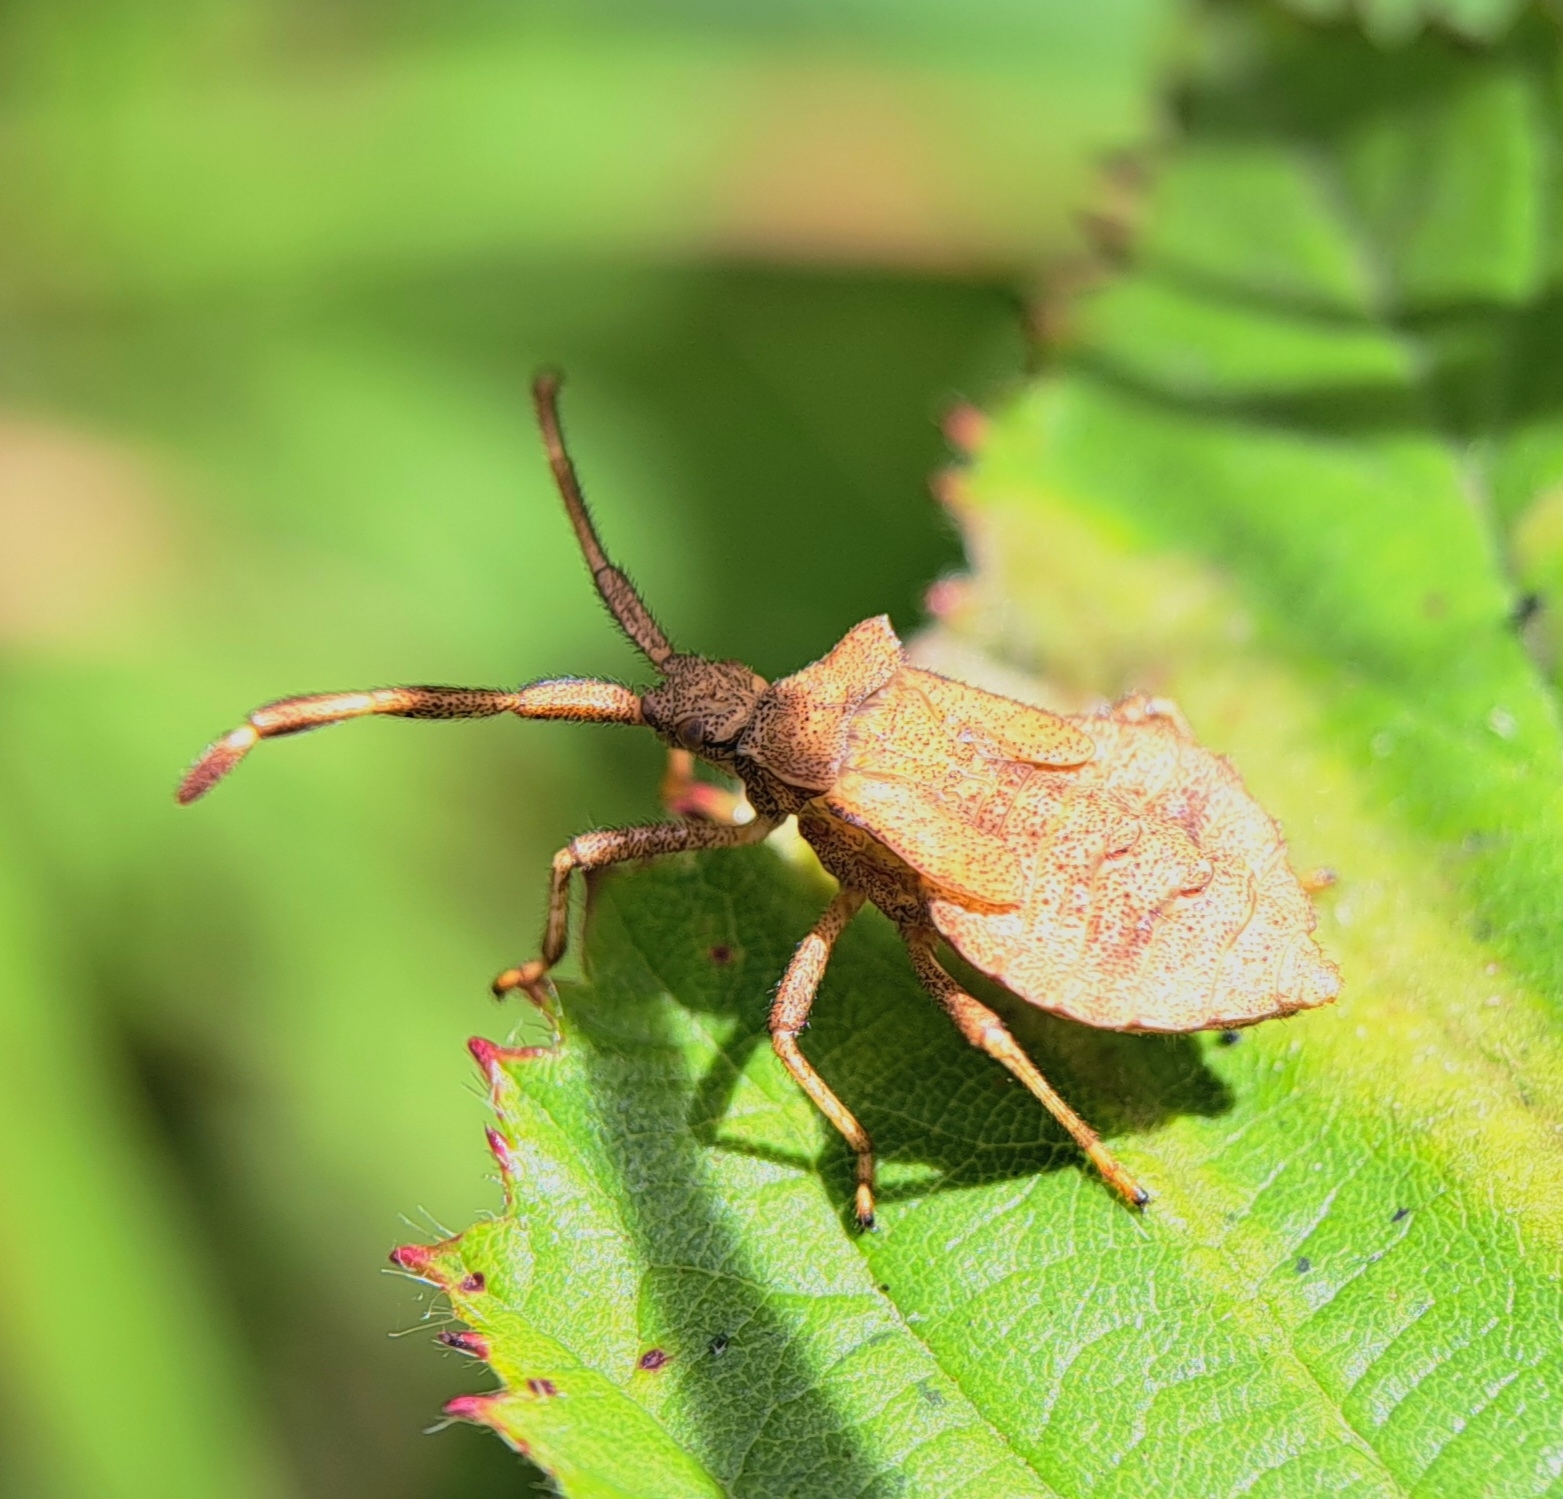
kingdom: Animalia
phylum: Arthropoda
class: Insecta
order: Hemiptera
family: Coreidae
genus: Coreus
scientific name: Coreus marginatus
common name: Dock bug
